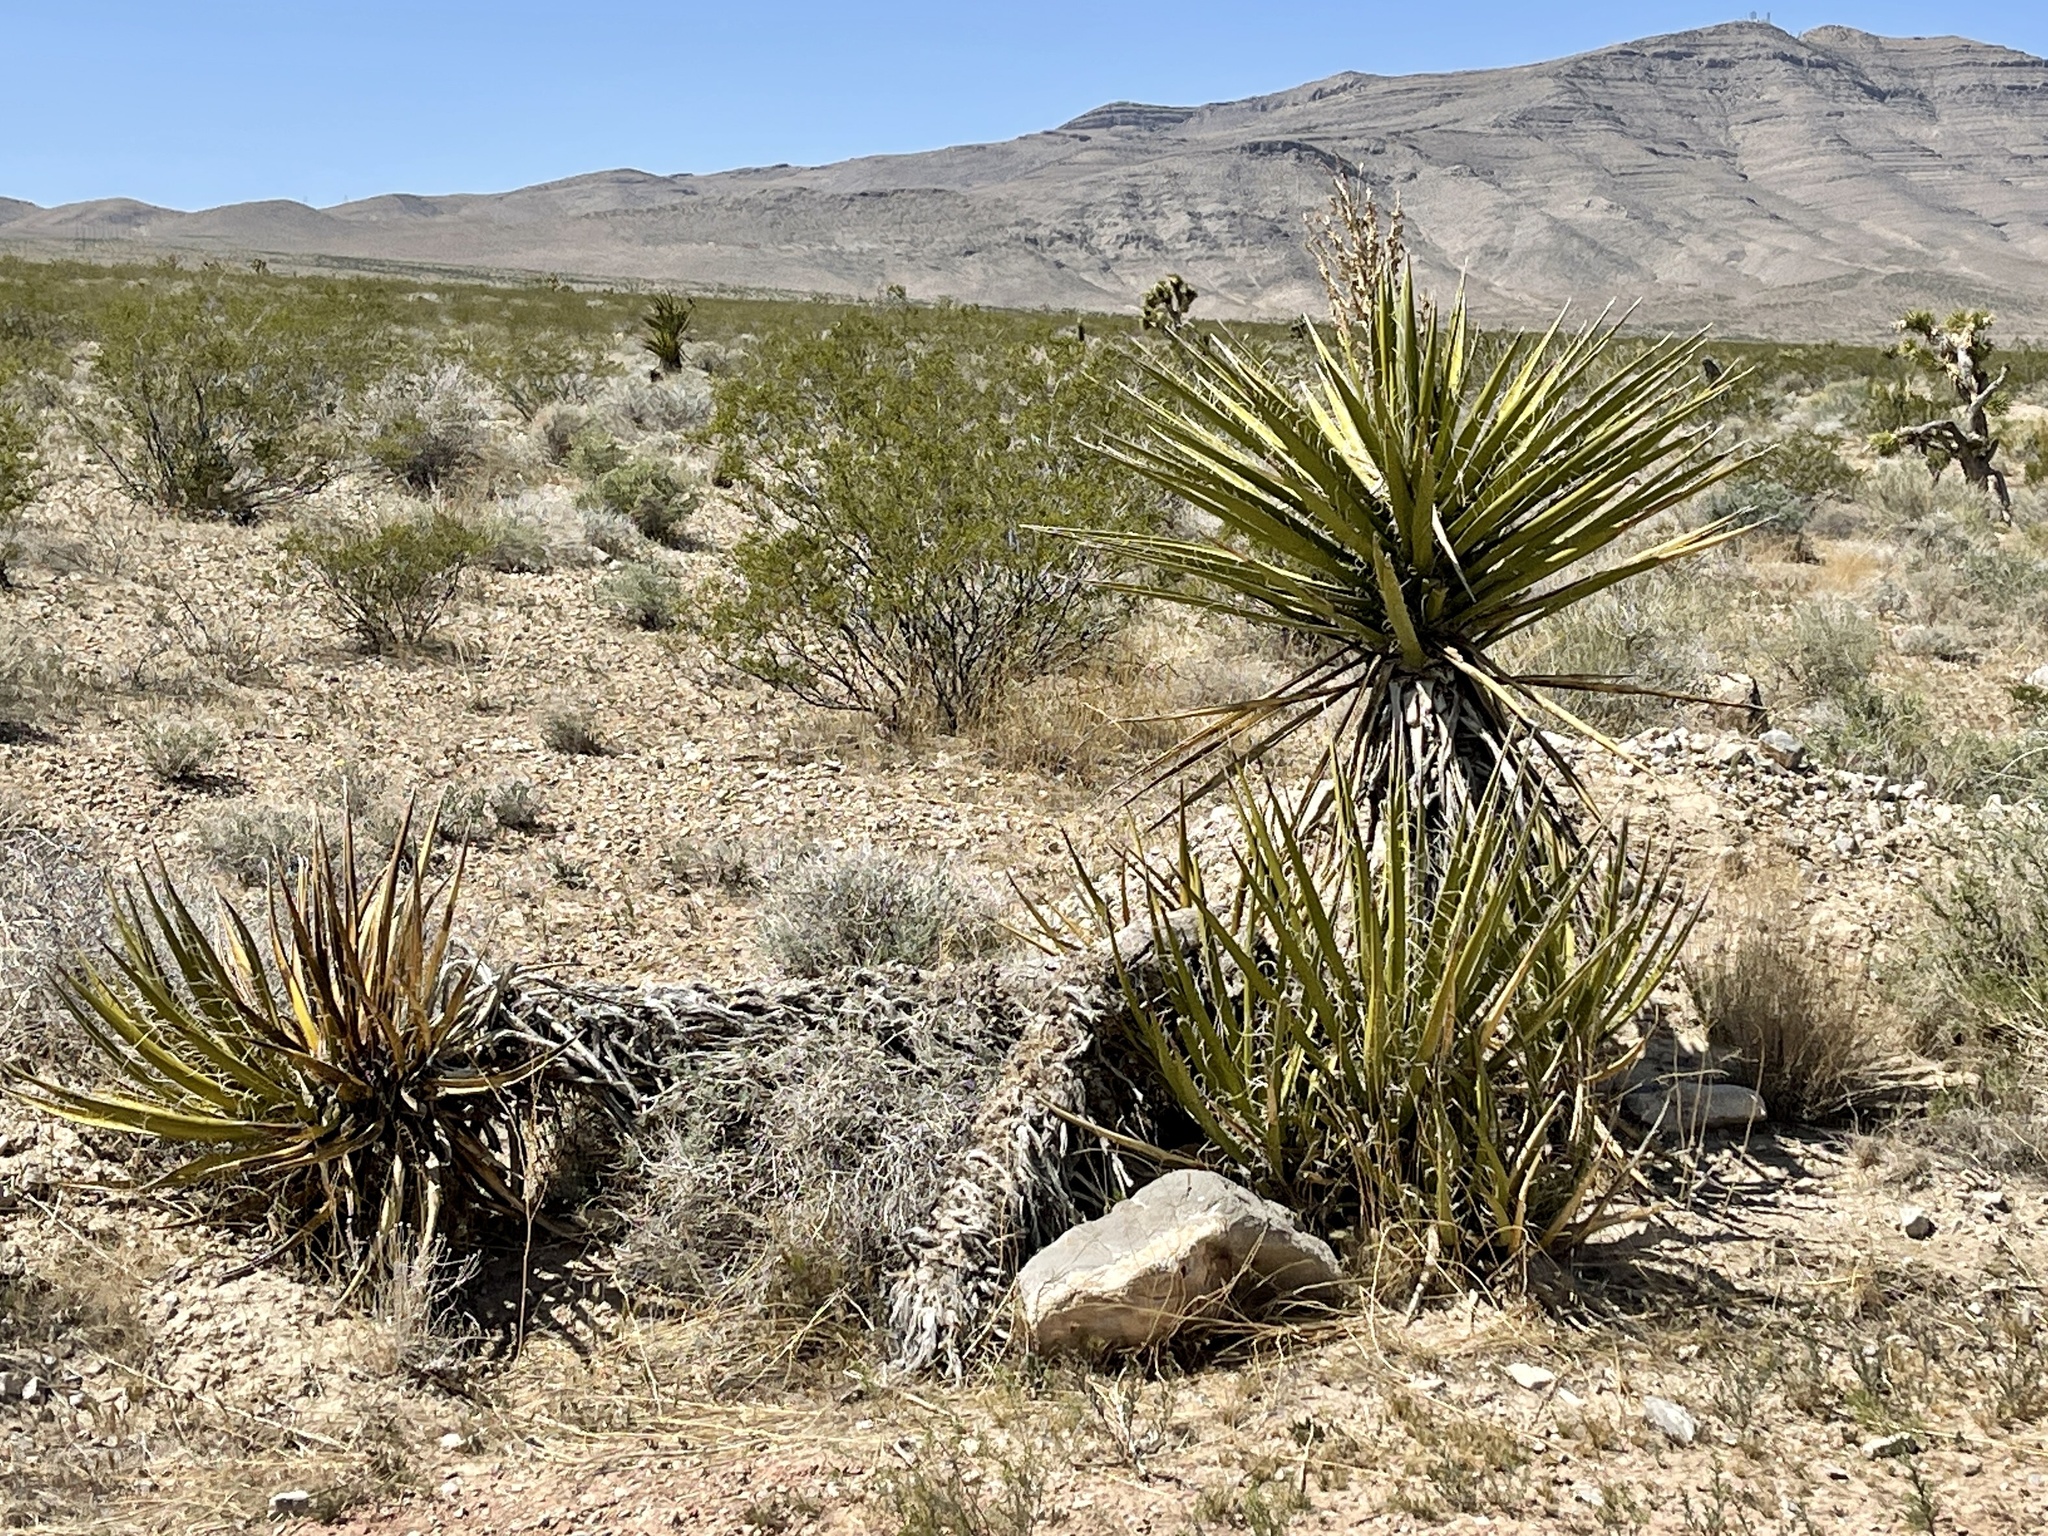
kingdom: Plantae
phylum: Tracheophyta
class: Liliopsida
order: Asparagales
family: Asparagaceae
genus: Yucca
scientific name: Yucca schidigera
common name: Mojave yucca
